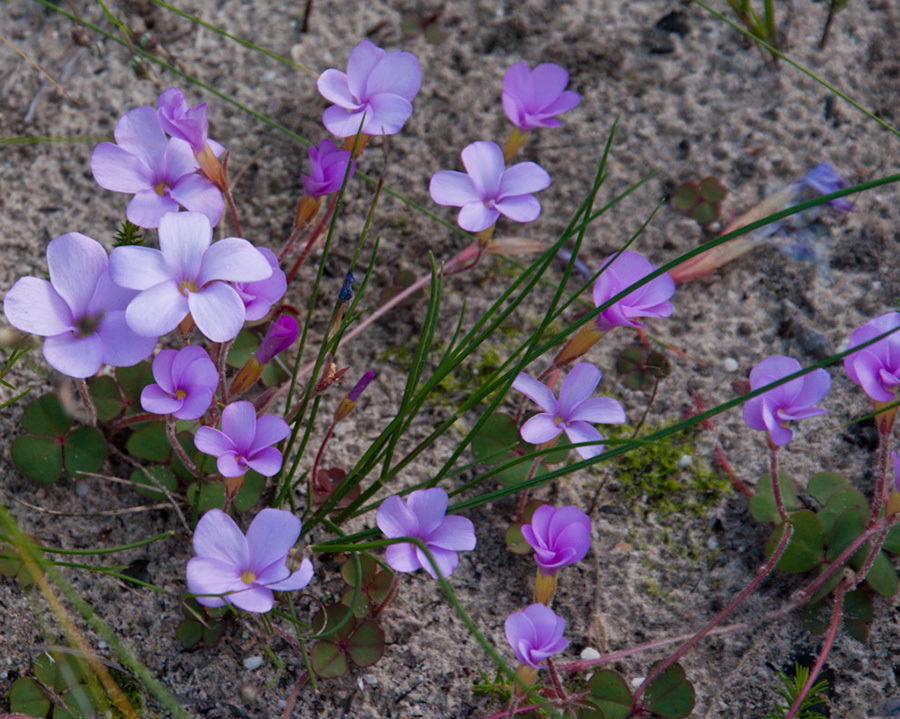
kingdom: Plantae
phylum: Tracheophyta
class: Magnoliopsida
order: Oxalidales
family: Oxalidaceae
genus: Oxalis
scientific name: Oxalis eckloniana
